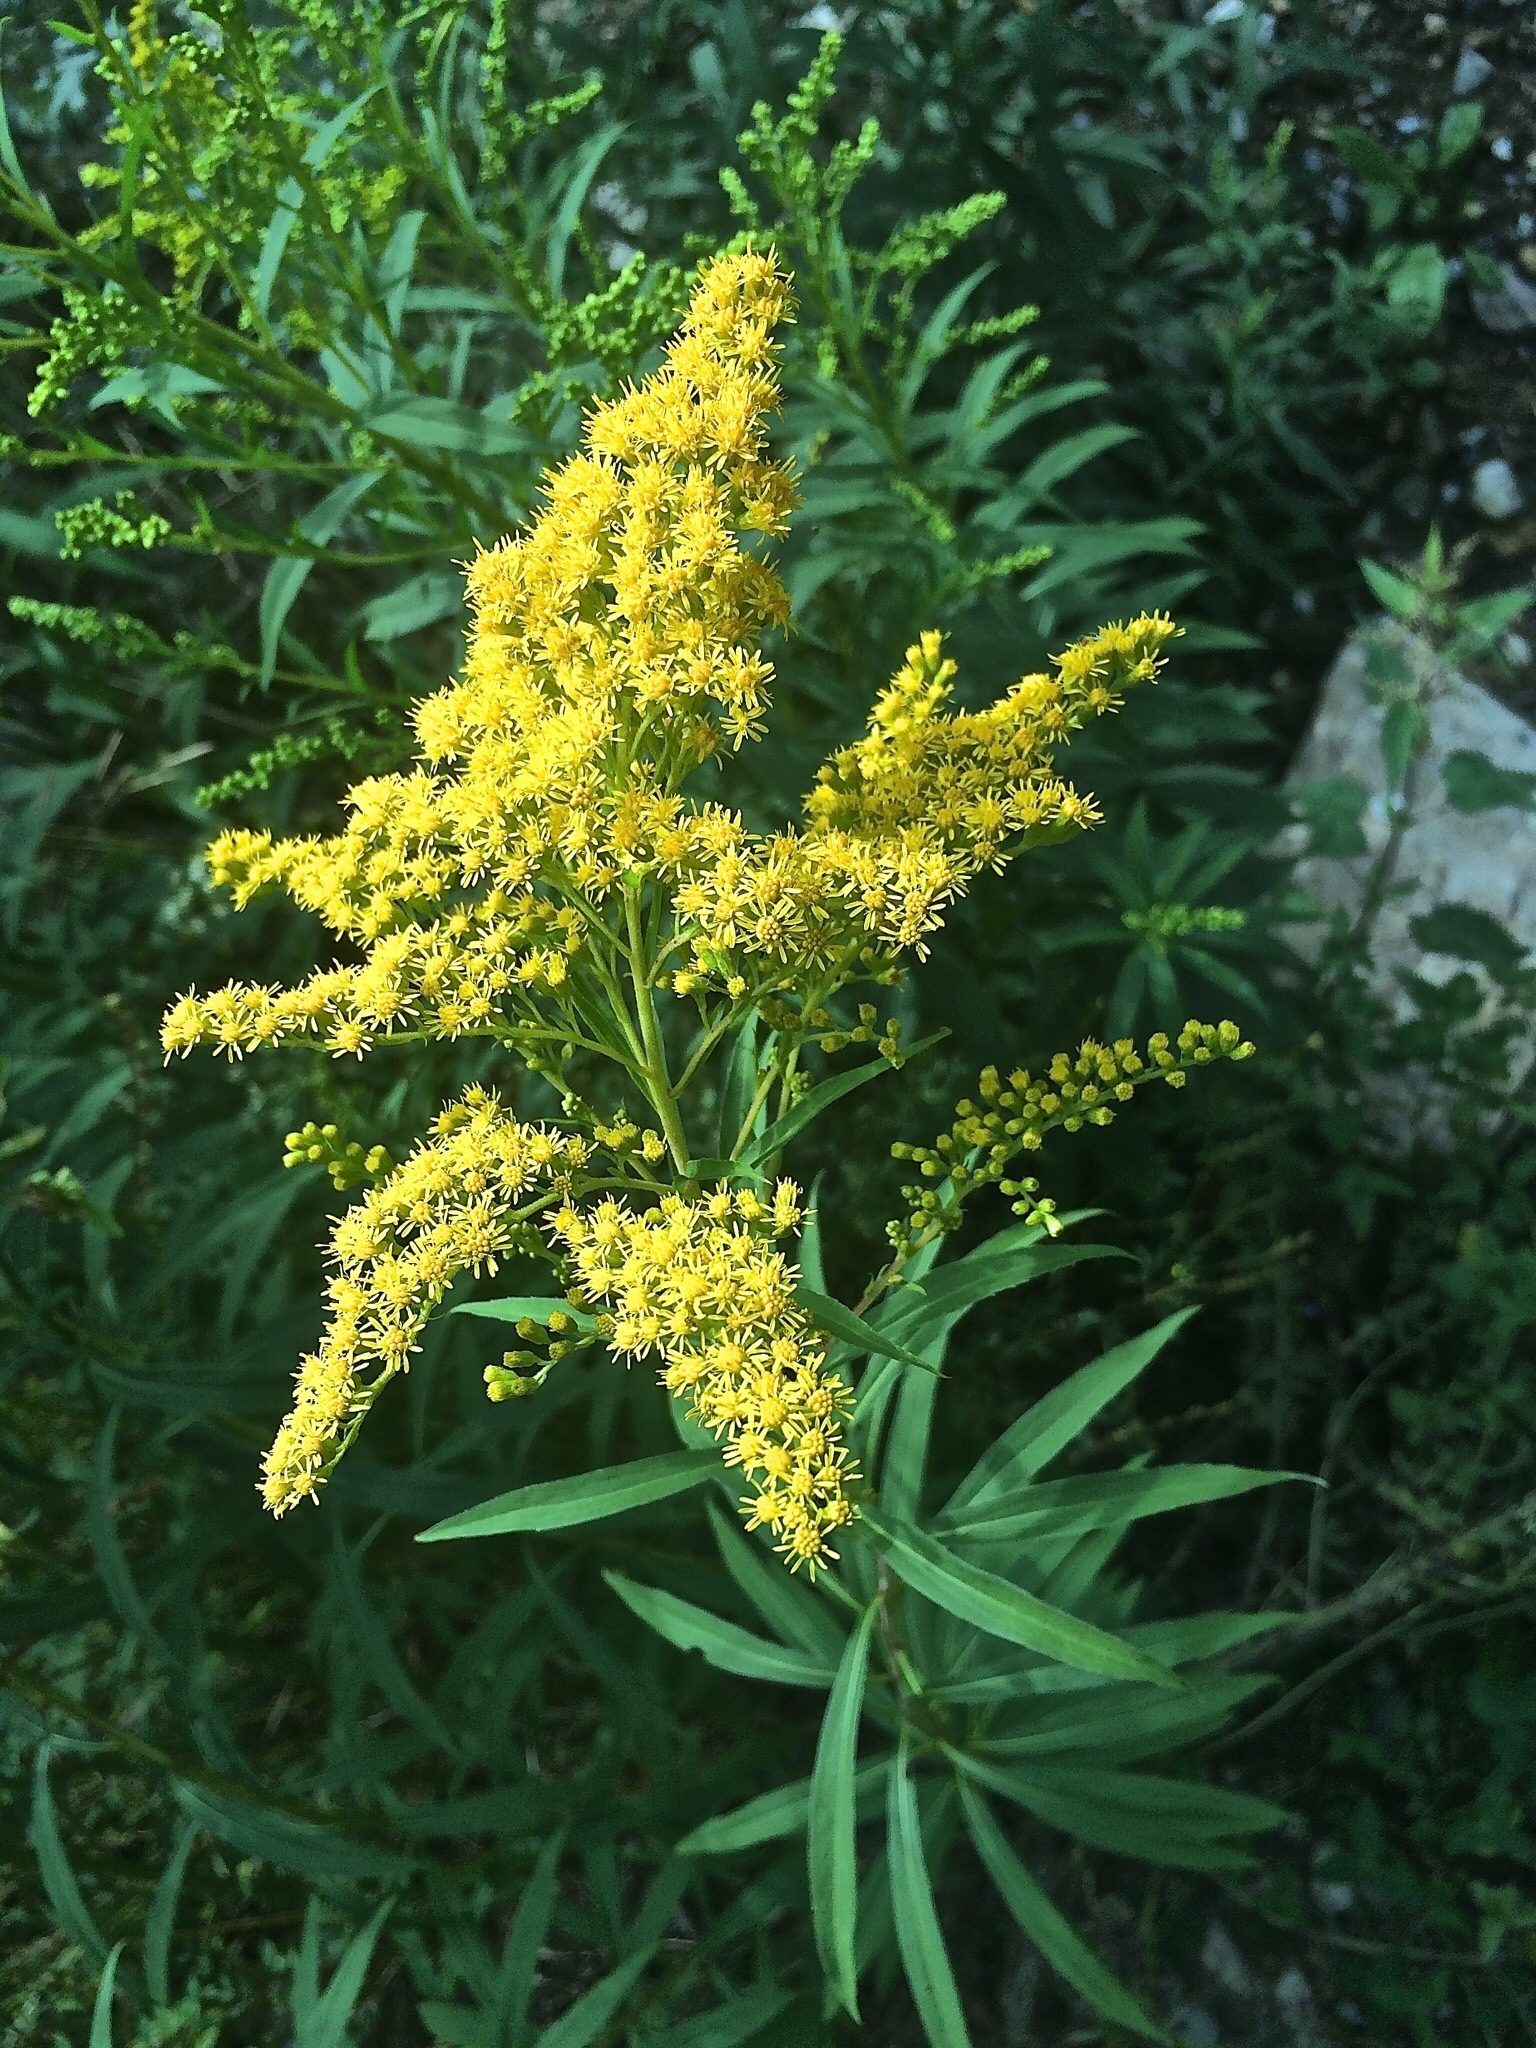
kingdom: Plantae
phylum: Tracheophyta
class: Magnoliopsida
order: Asterales
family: Asteraceae
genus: Solidago
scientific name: Solidago canadensis
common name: Canada goldenrod
